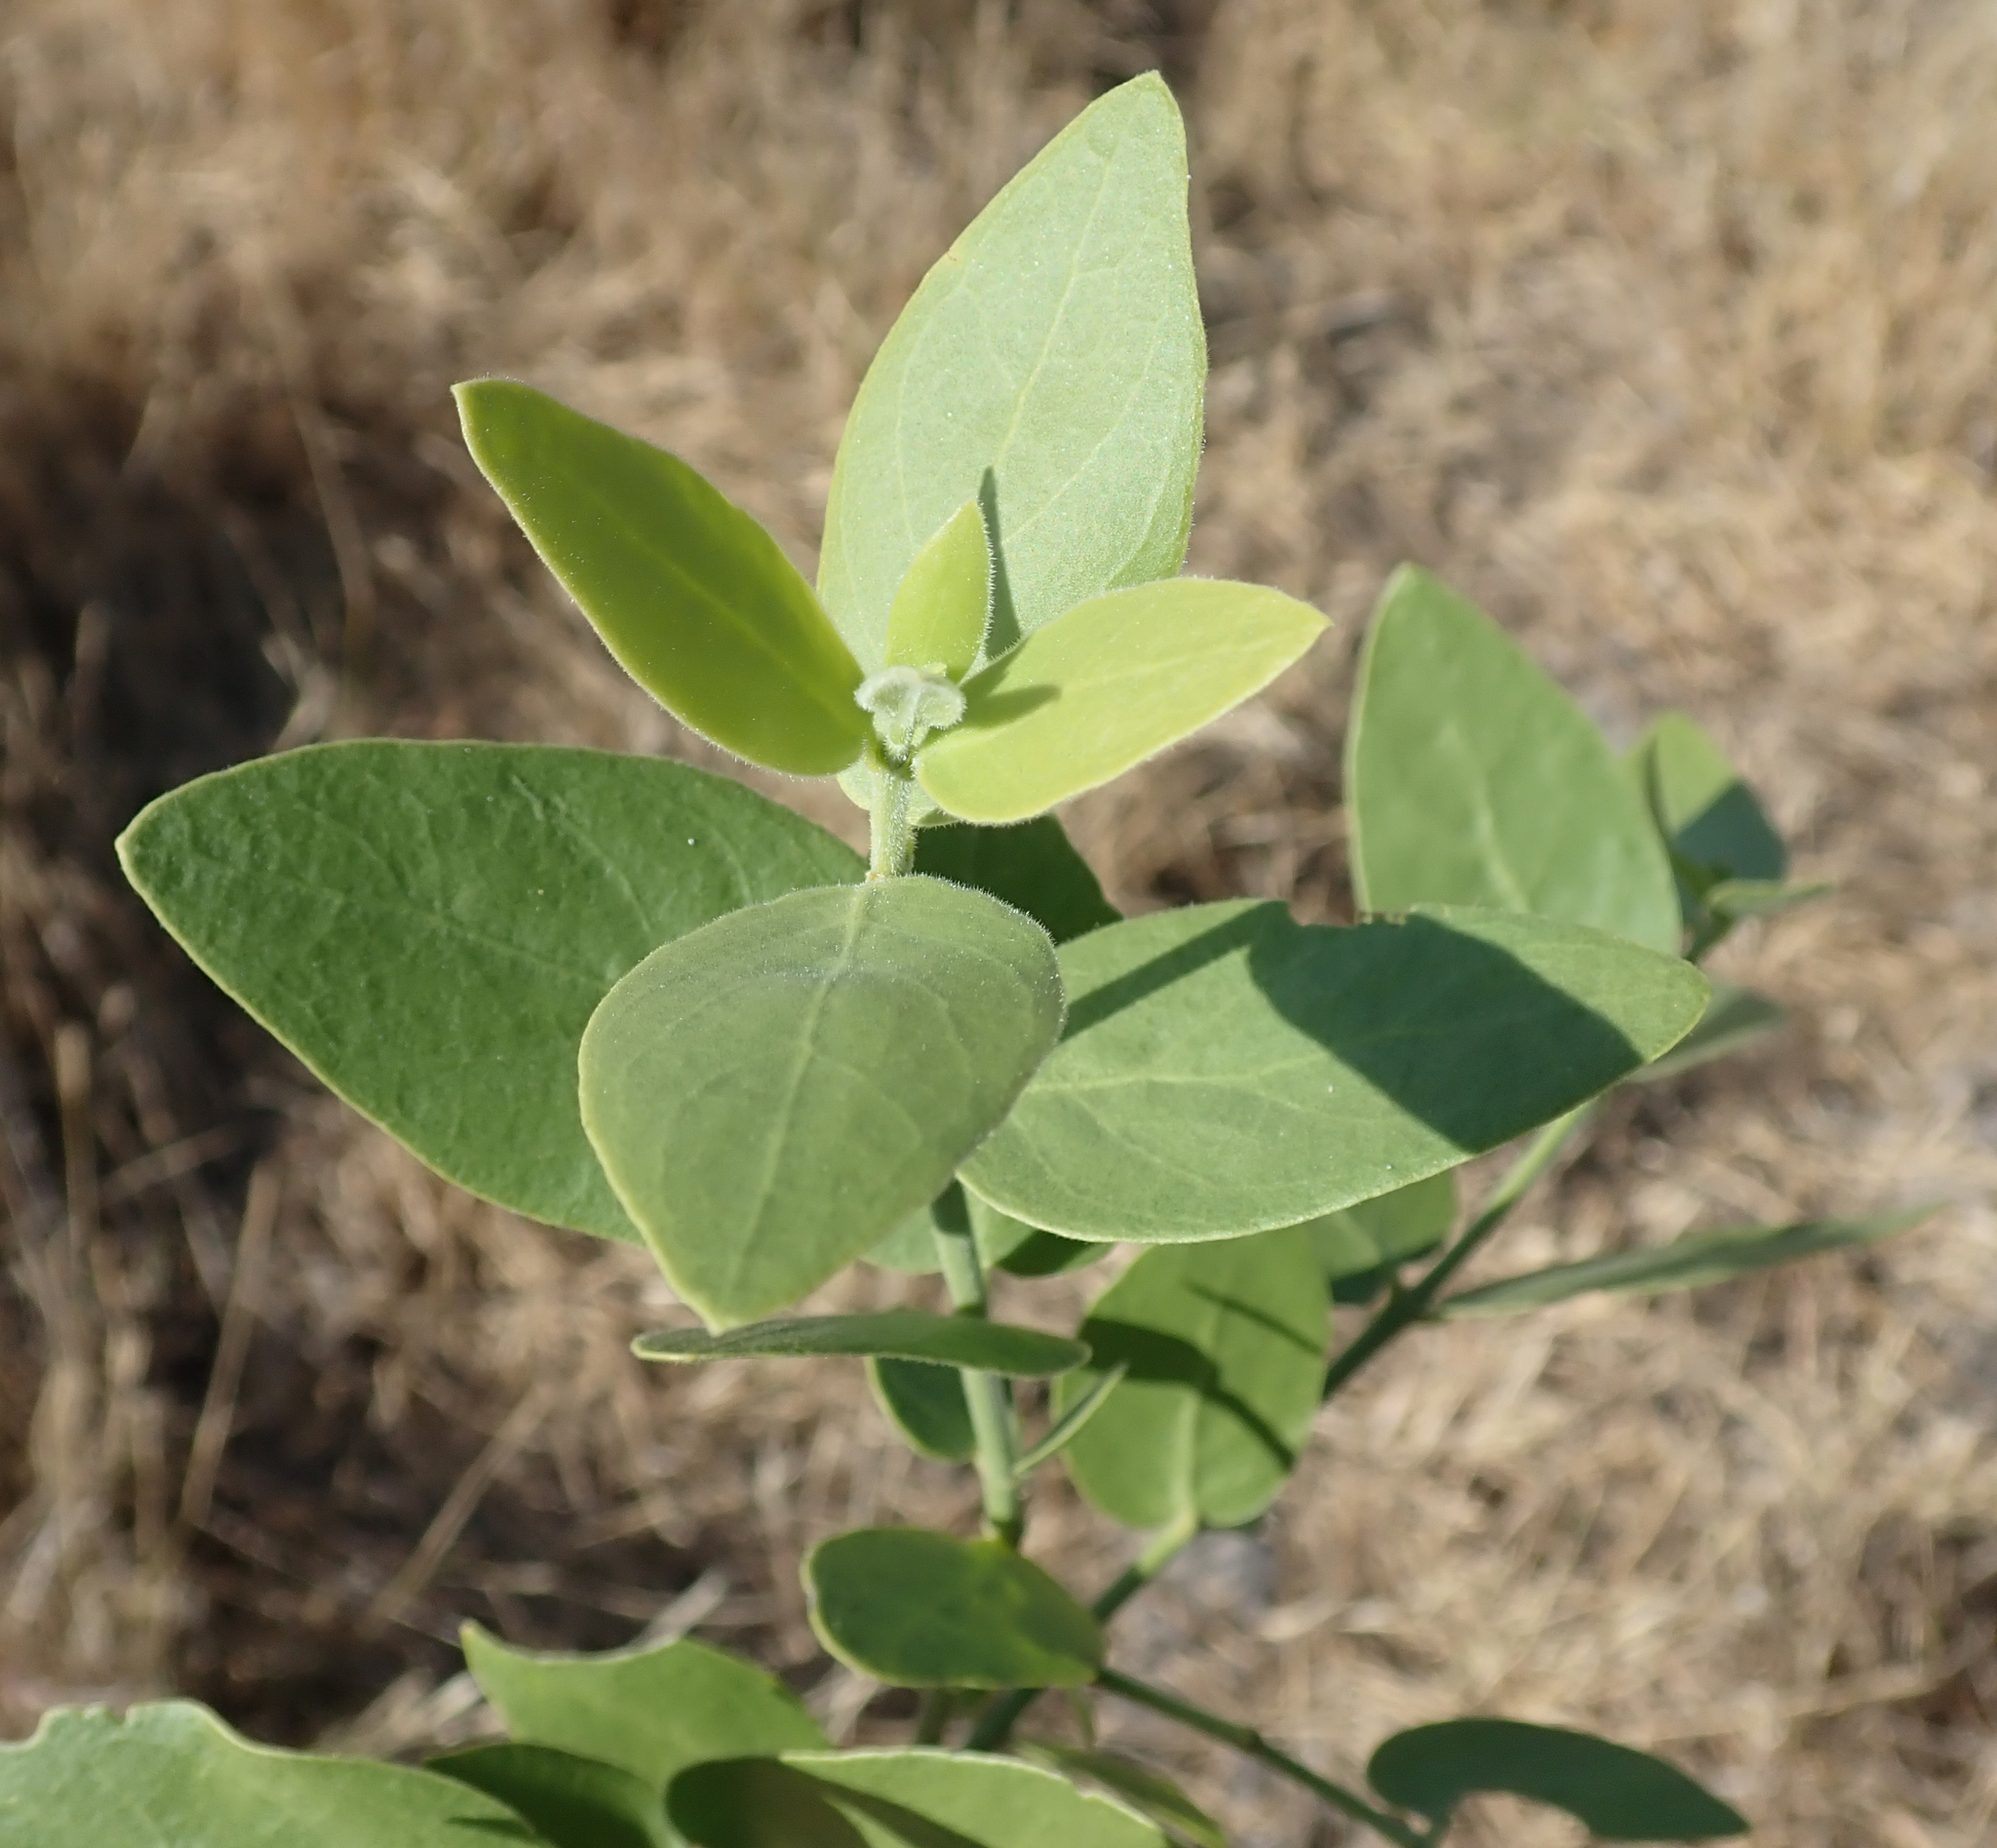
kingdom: Plantae
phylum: Tracheophyta
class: Magnoliopsida
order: Brassicales
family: Salvadoraceae
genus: Salvadora
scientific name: Salvadora persica
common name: Toothbrushtree
